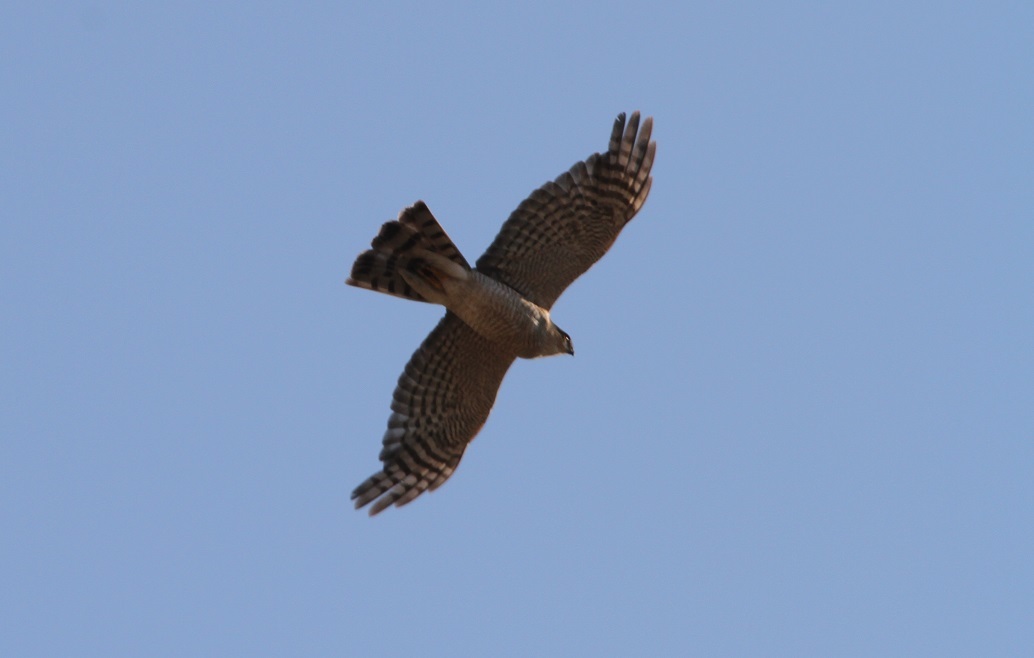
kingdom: Animalia
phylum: Chordata
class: Aves
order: Accipitriformes
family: Accipitridae
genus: Accipiter
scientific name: Accipiter nisus
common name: Eurasian sparrowhawk
